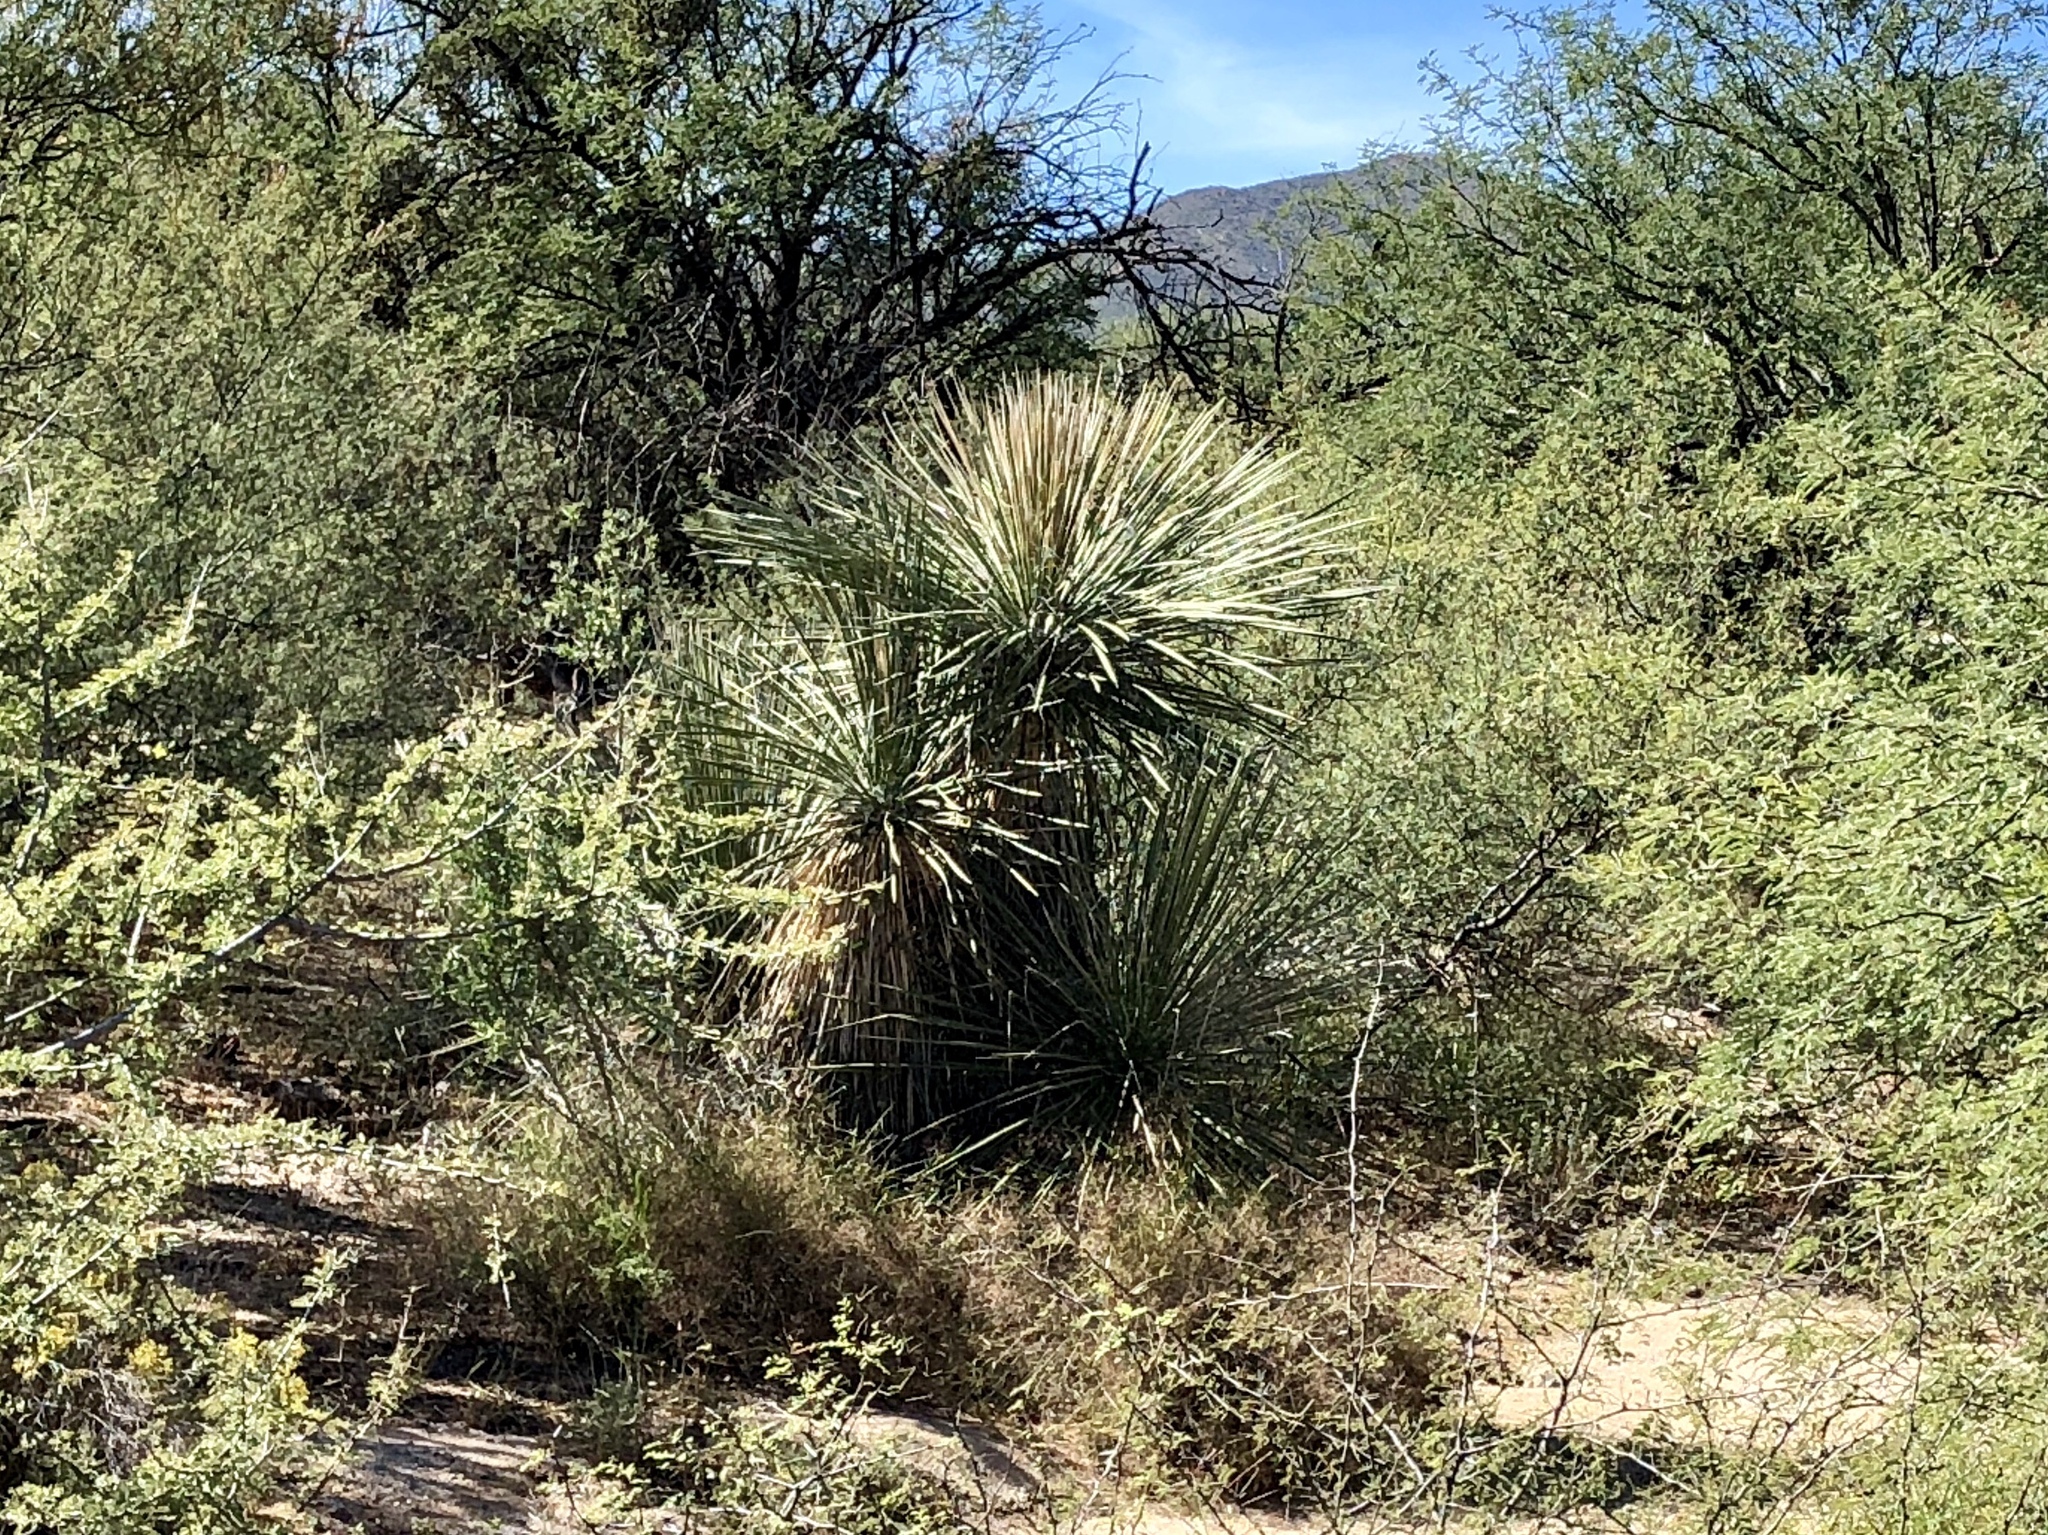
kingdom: Plantae
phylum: Tracheophyta
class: Liliopsida
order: Asparagales
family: Asparagaceae
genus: Yucca
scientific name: Yucca elata
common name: Palmella
